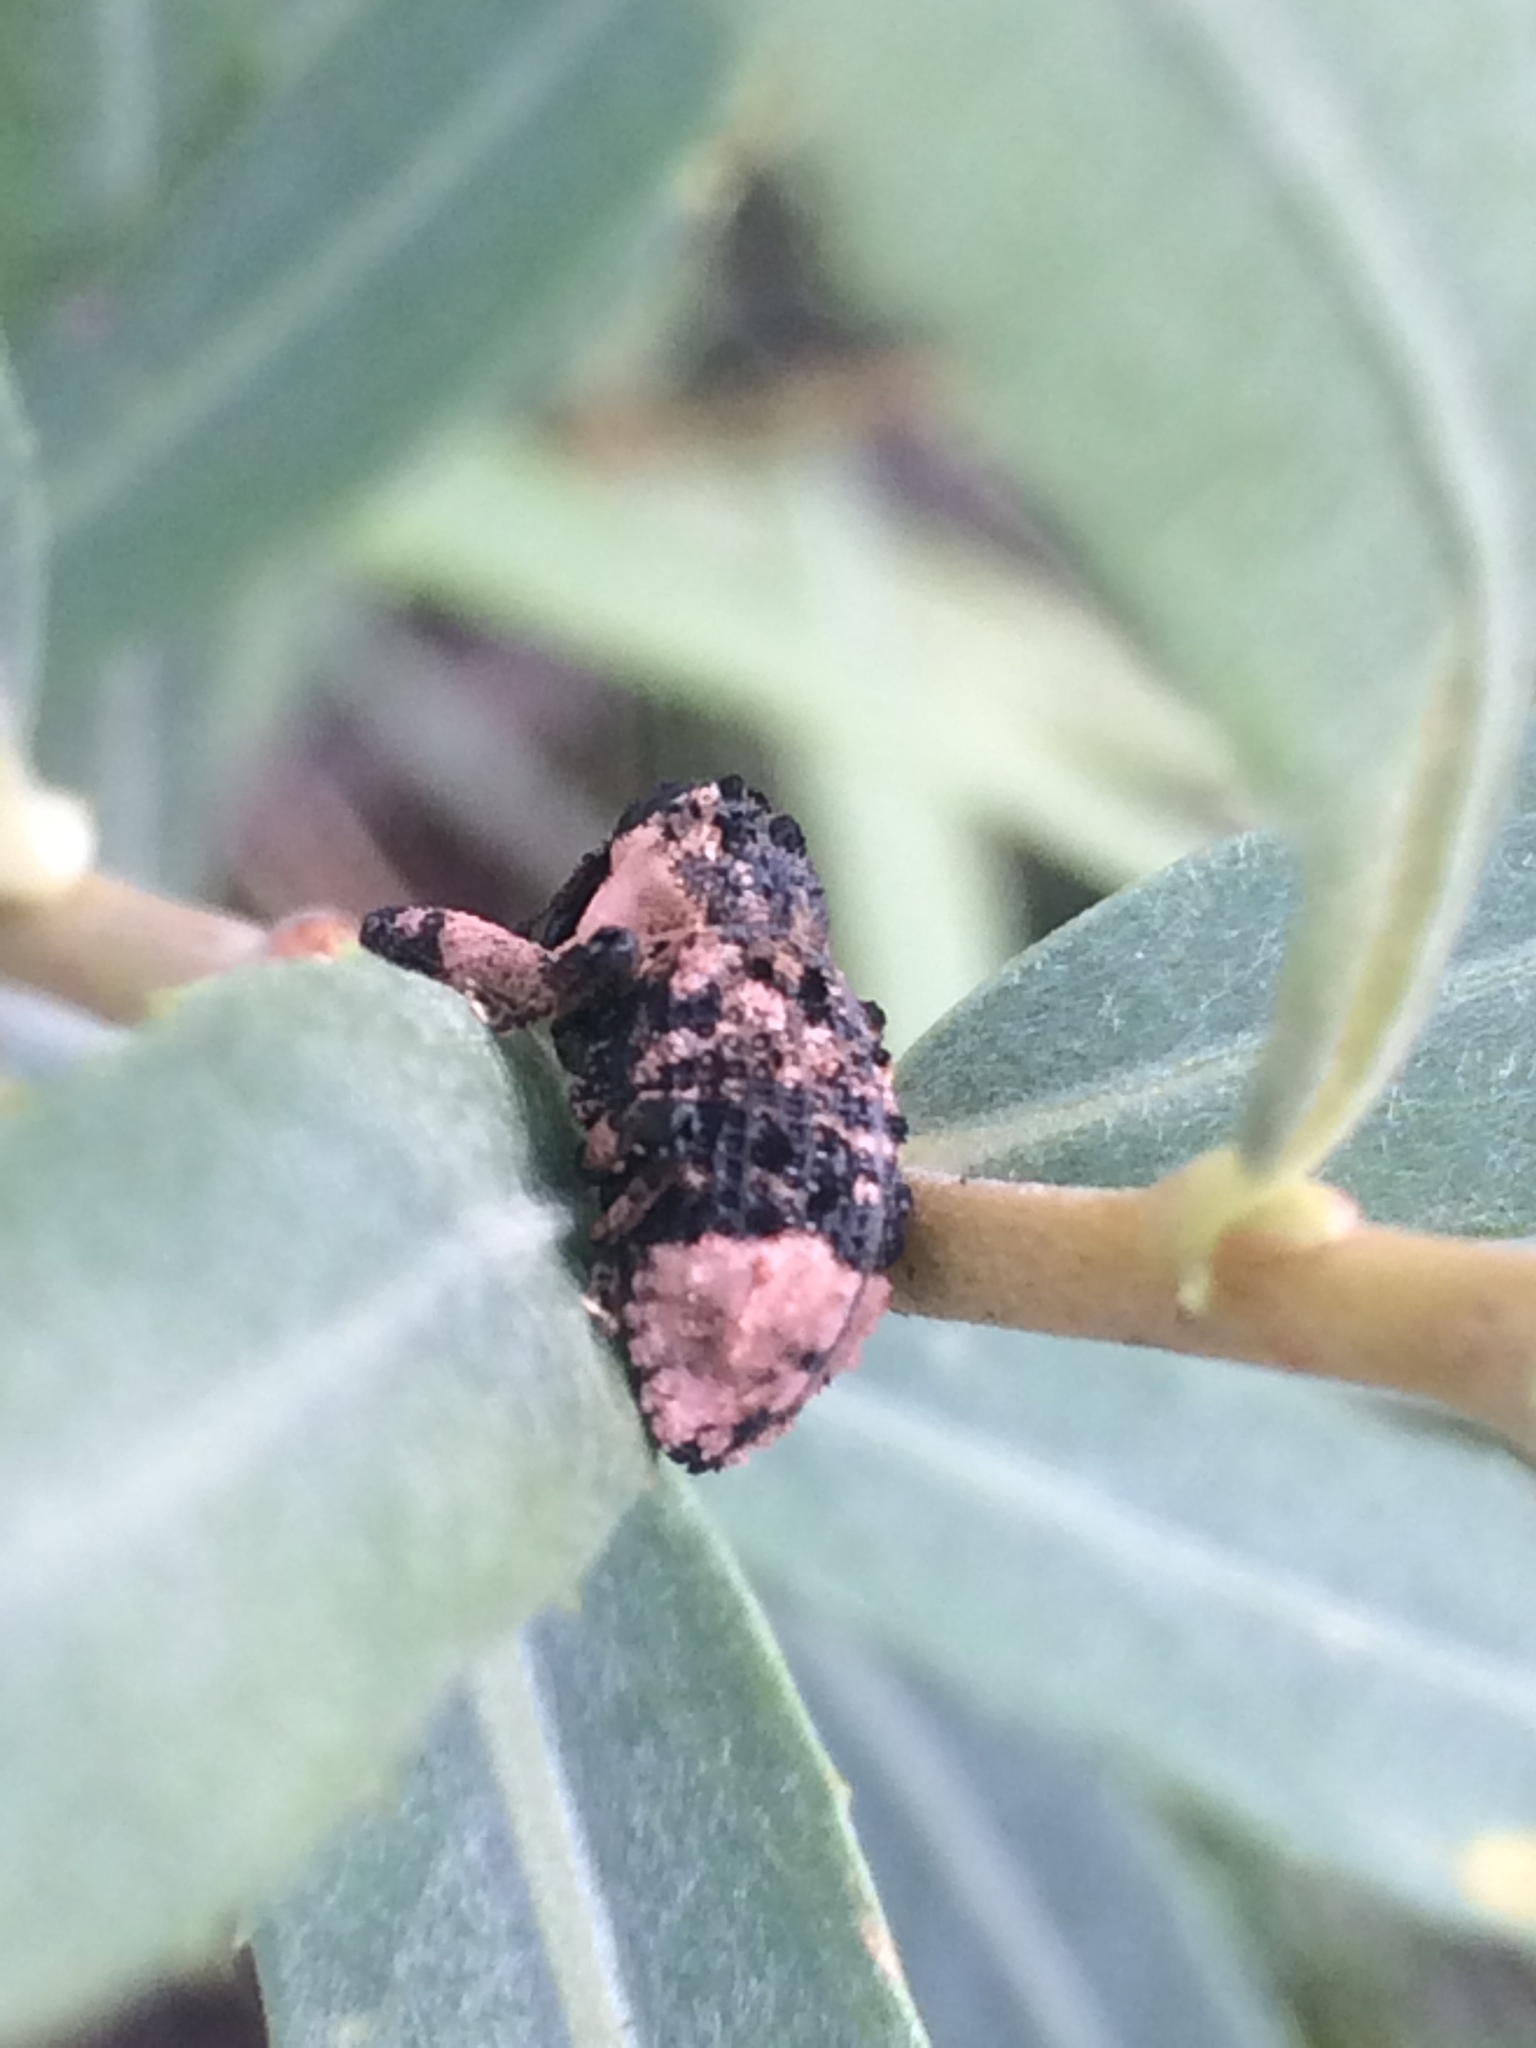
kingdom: Animalia
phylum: Arthropoda
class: Insecta
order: Coleoptera
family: Curculionidae
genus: Cryptorhynchus
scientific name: Cryptorhynchus lapathi
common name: Weevil
